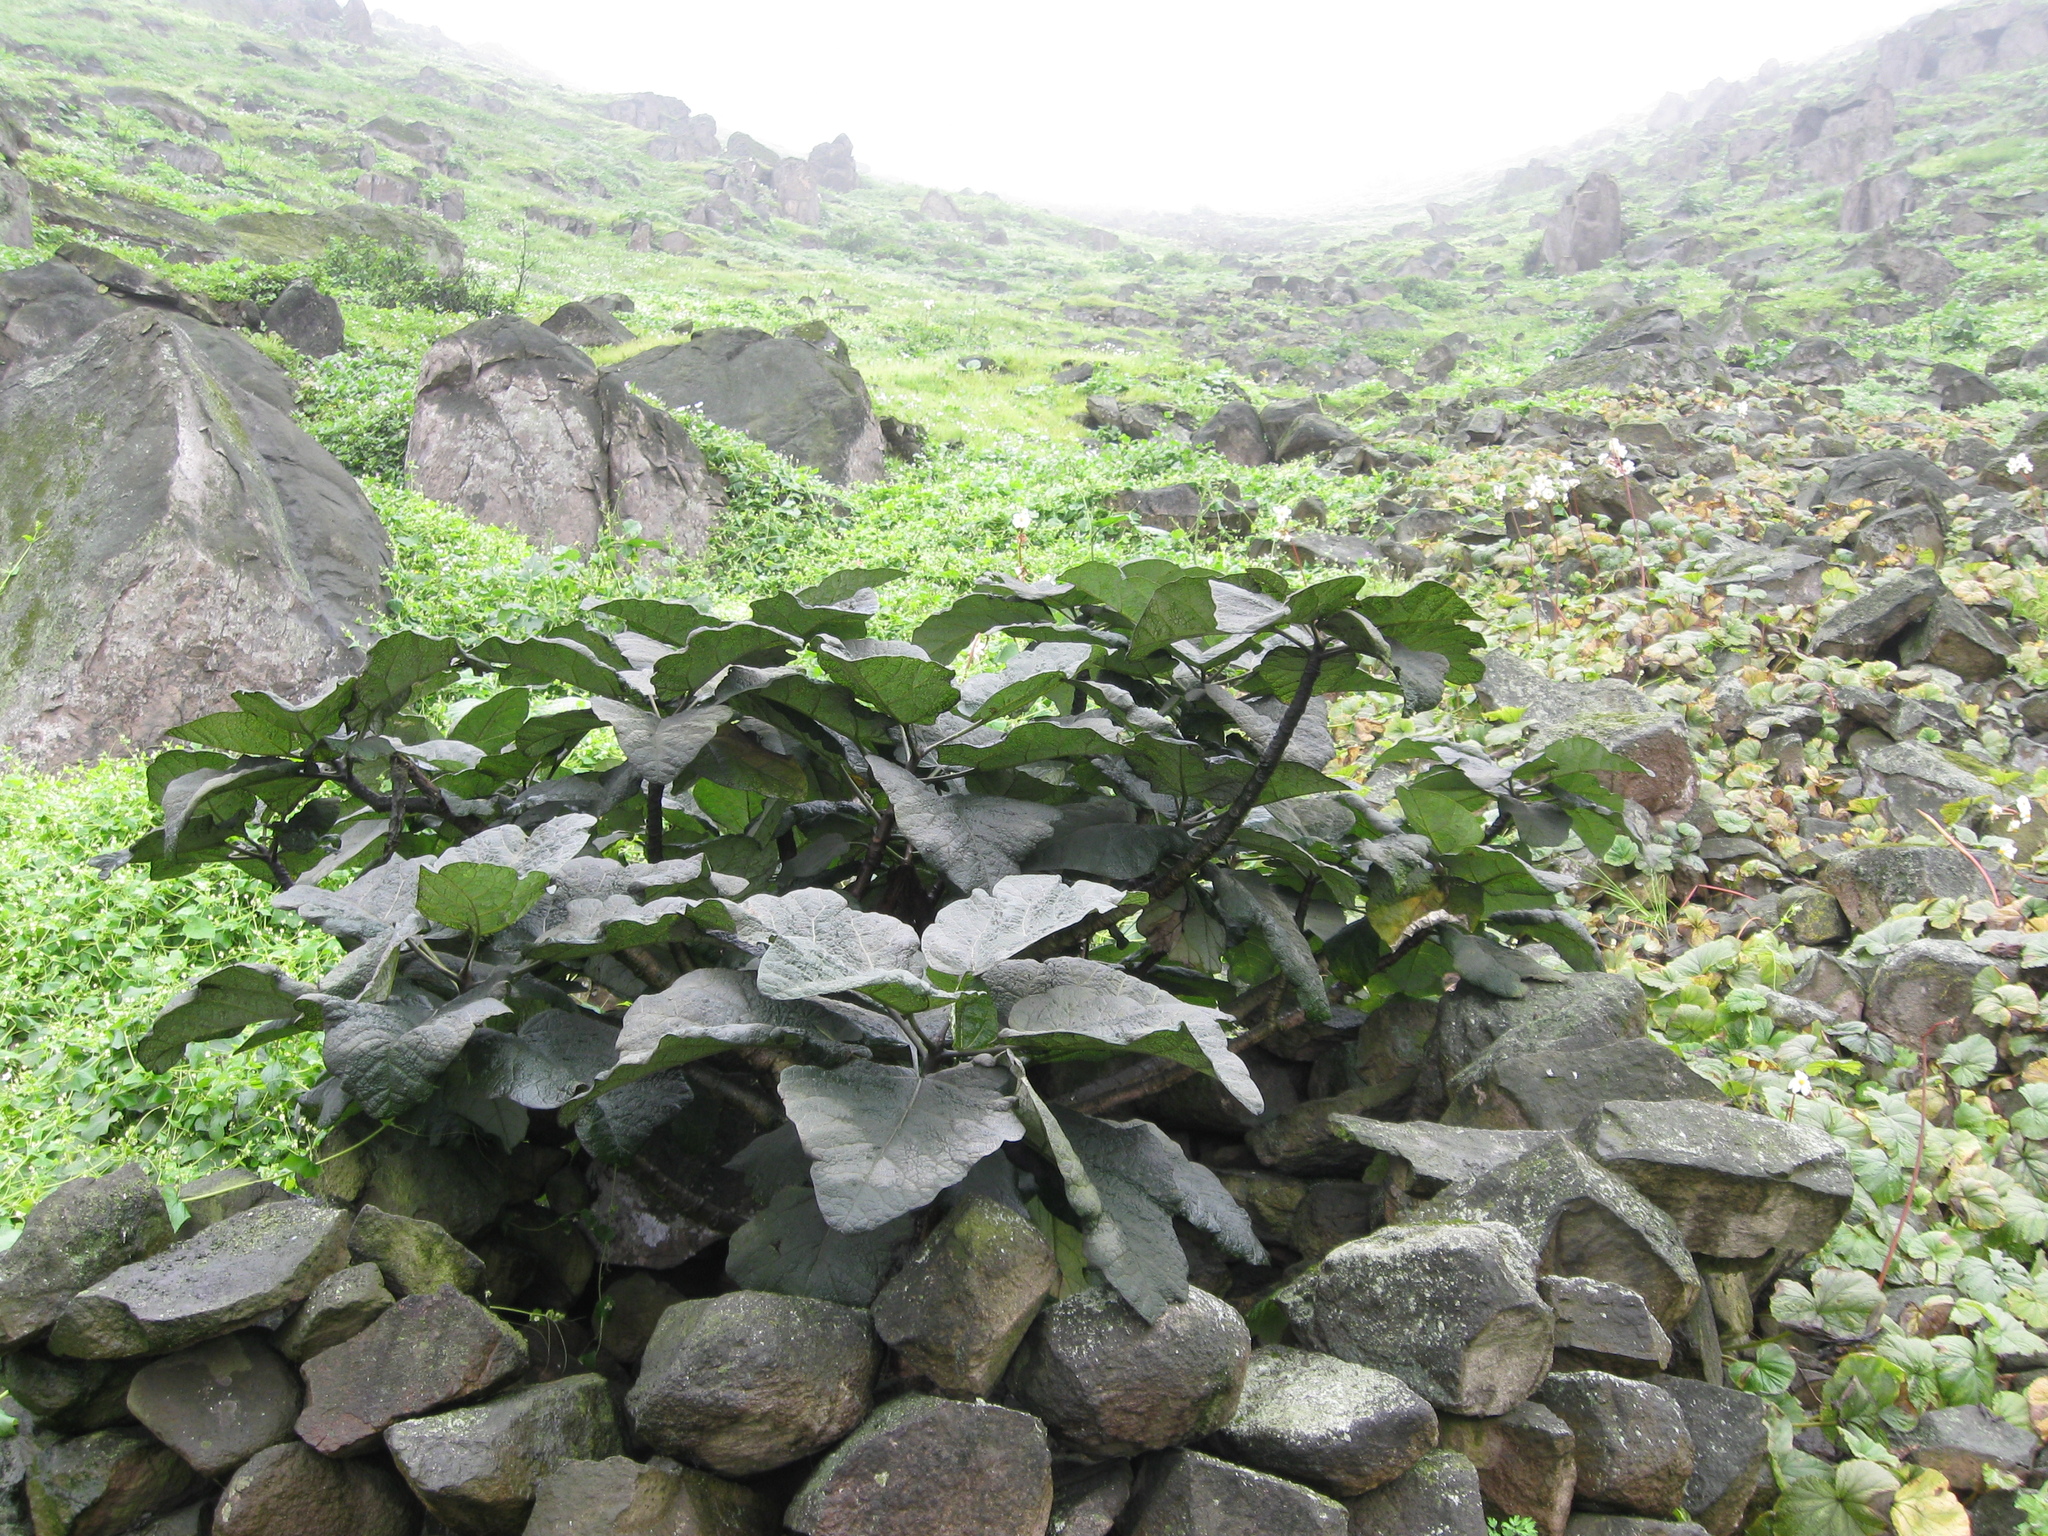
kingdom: Plantae
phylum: Tracheophyta
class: Magnoliopsida
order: Brassicales
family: Caricaceae
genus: Vasconcellea
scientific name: Vasconcellea candicans
